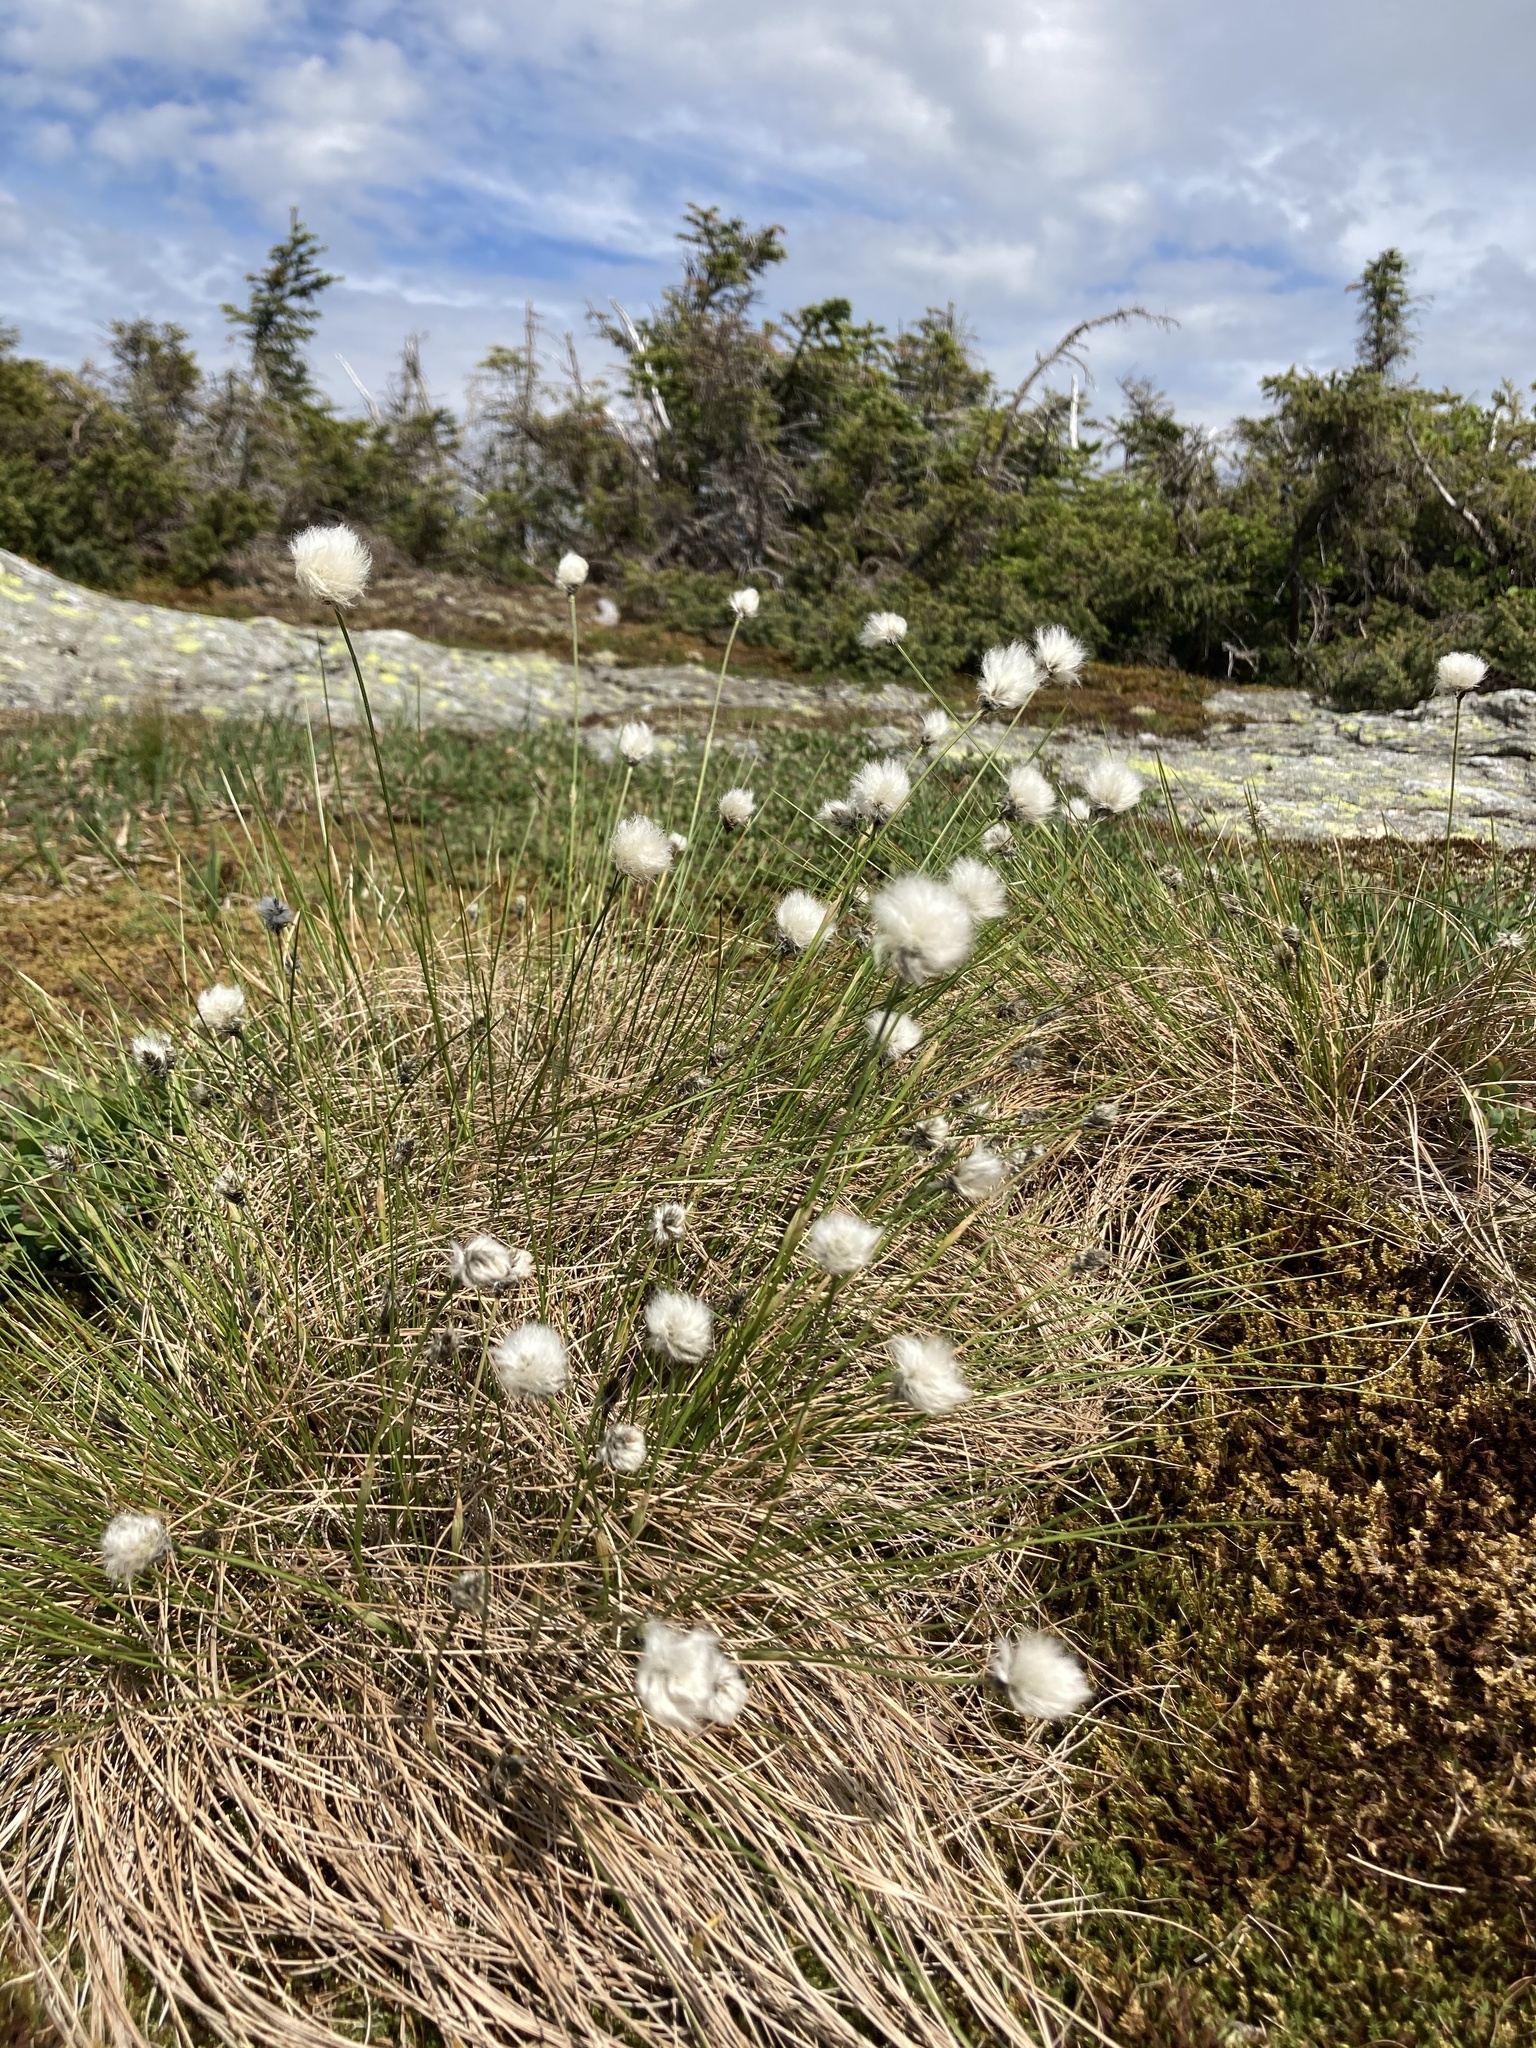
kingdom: Plantae
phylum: Tracheophyta
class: Liliopsida
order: Poales
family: Cyperaceae
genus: Eriophorum
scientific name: Eriophorum vaginatum
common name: Hare's-tail cottongrass
